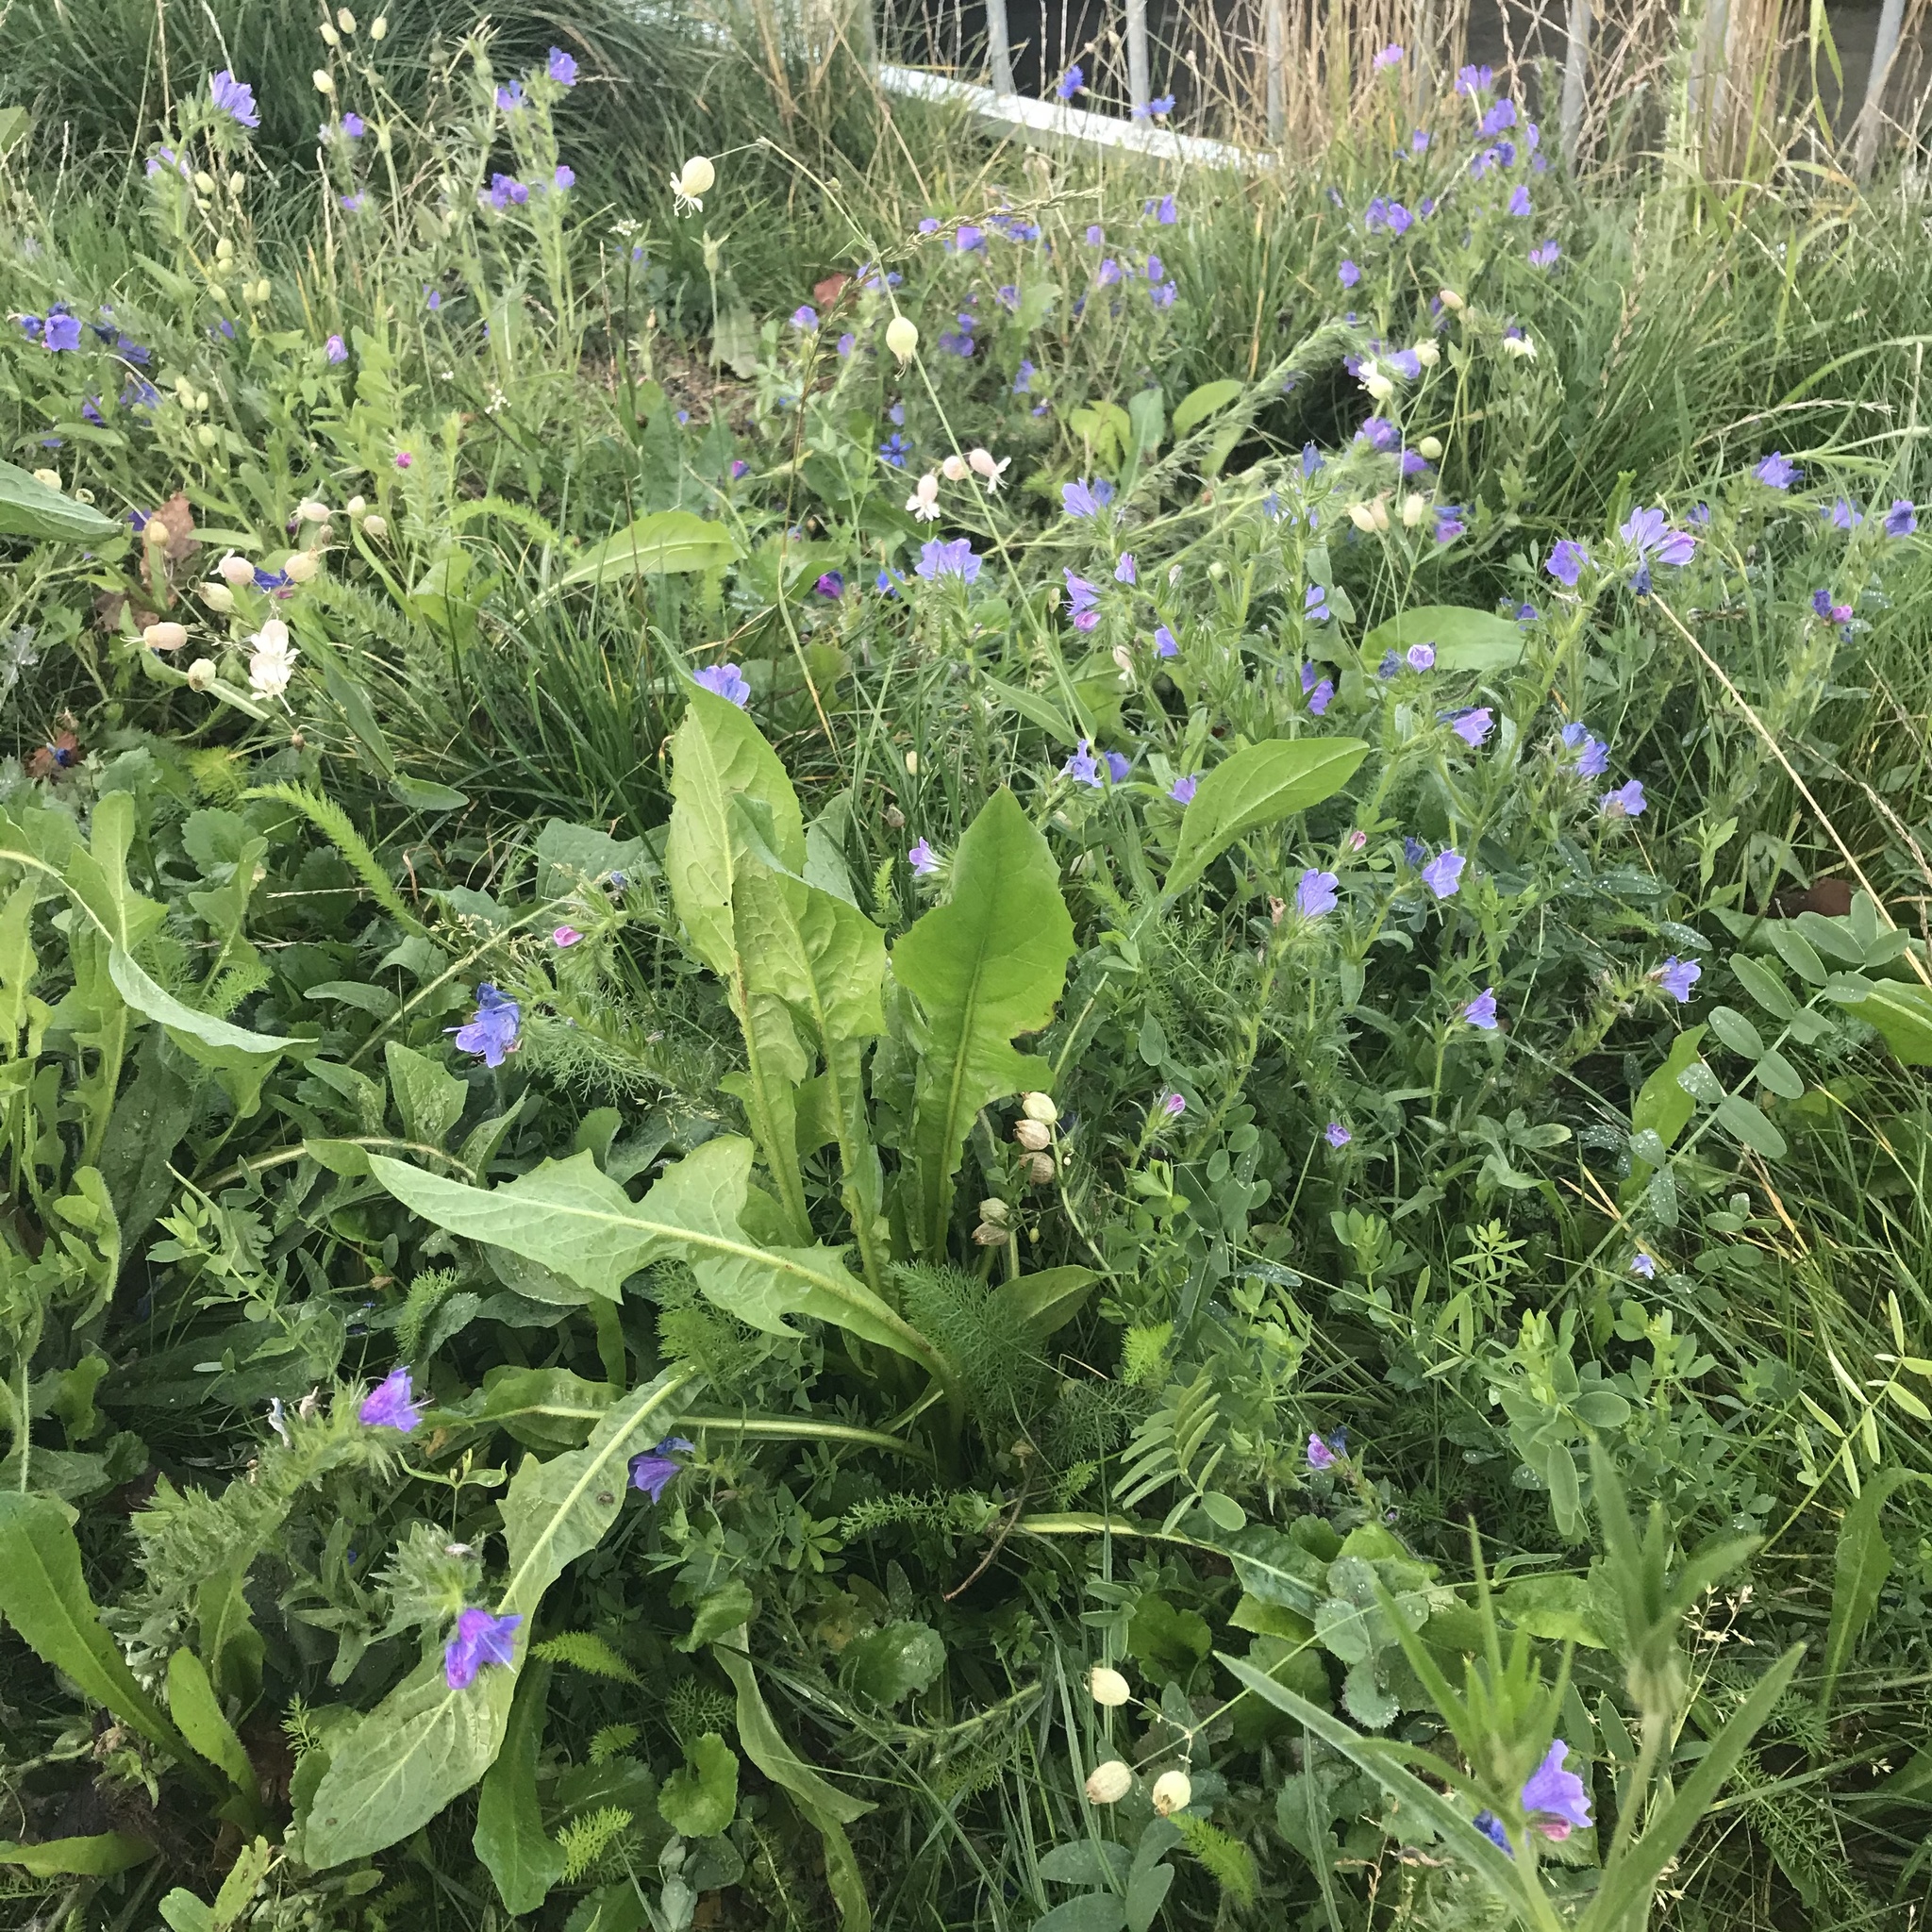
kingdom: Plantae
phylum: Tracheophyta
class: Magnoliopsida
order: Boraginales
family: Boraginaceae
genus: Echium
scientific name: Echium vulgare
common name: Common viper's bugloss
